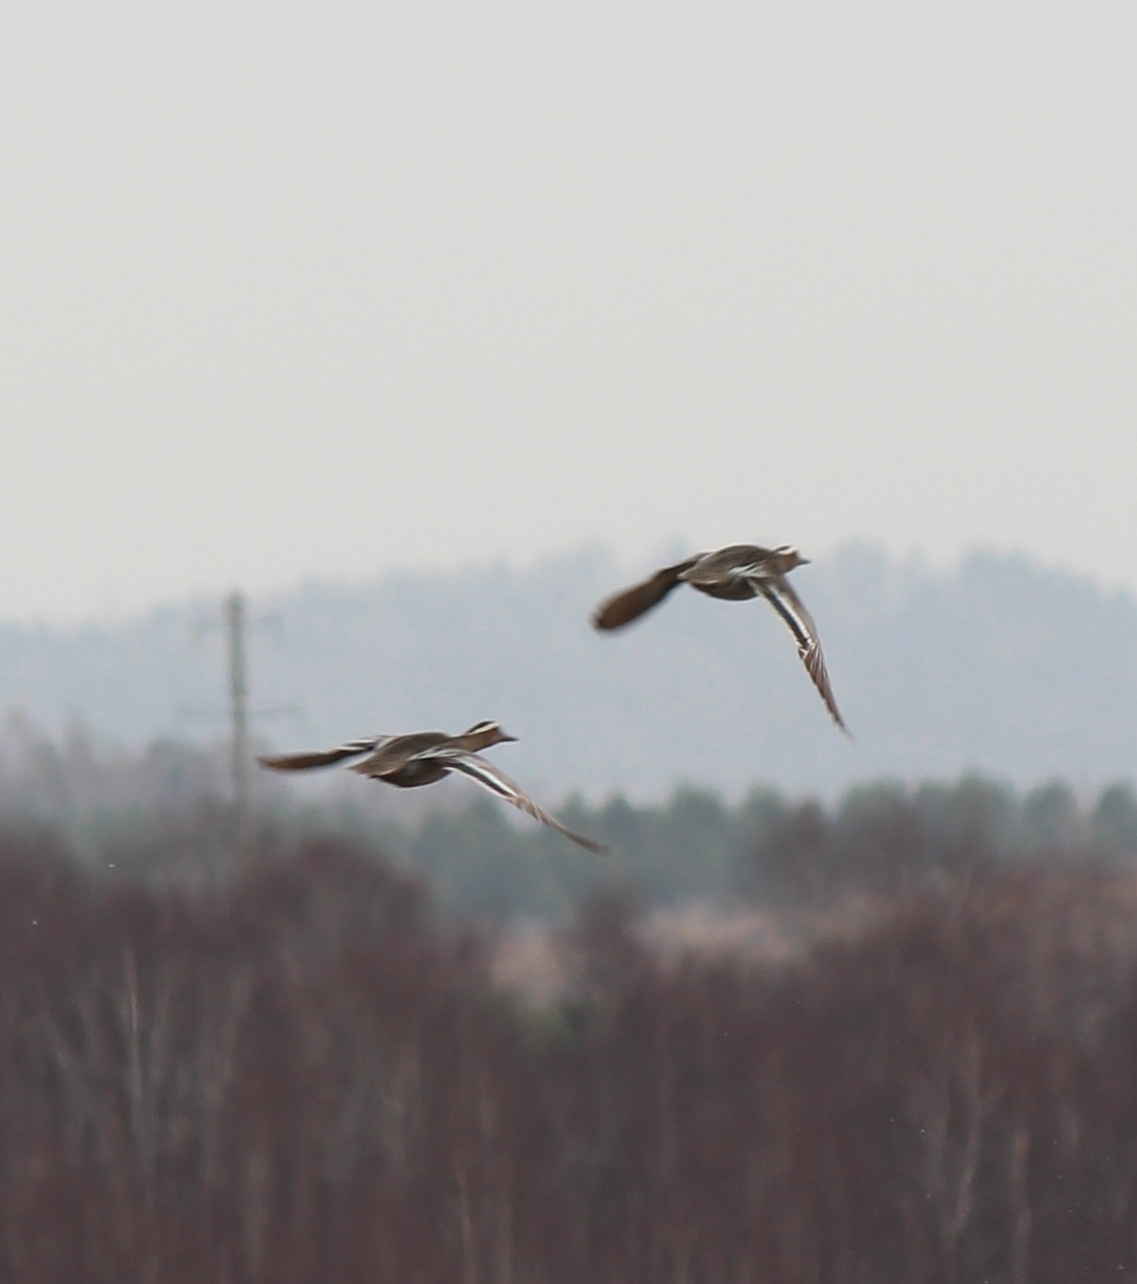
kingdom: Animalia
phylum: Chordata
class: Aves
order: Anseriformes
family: Anatidae
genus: Spatula
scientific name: Spatula querquedula
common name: Garganey
